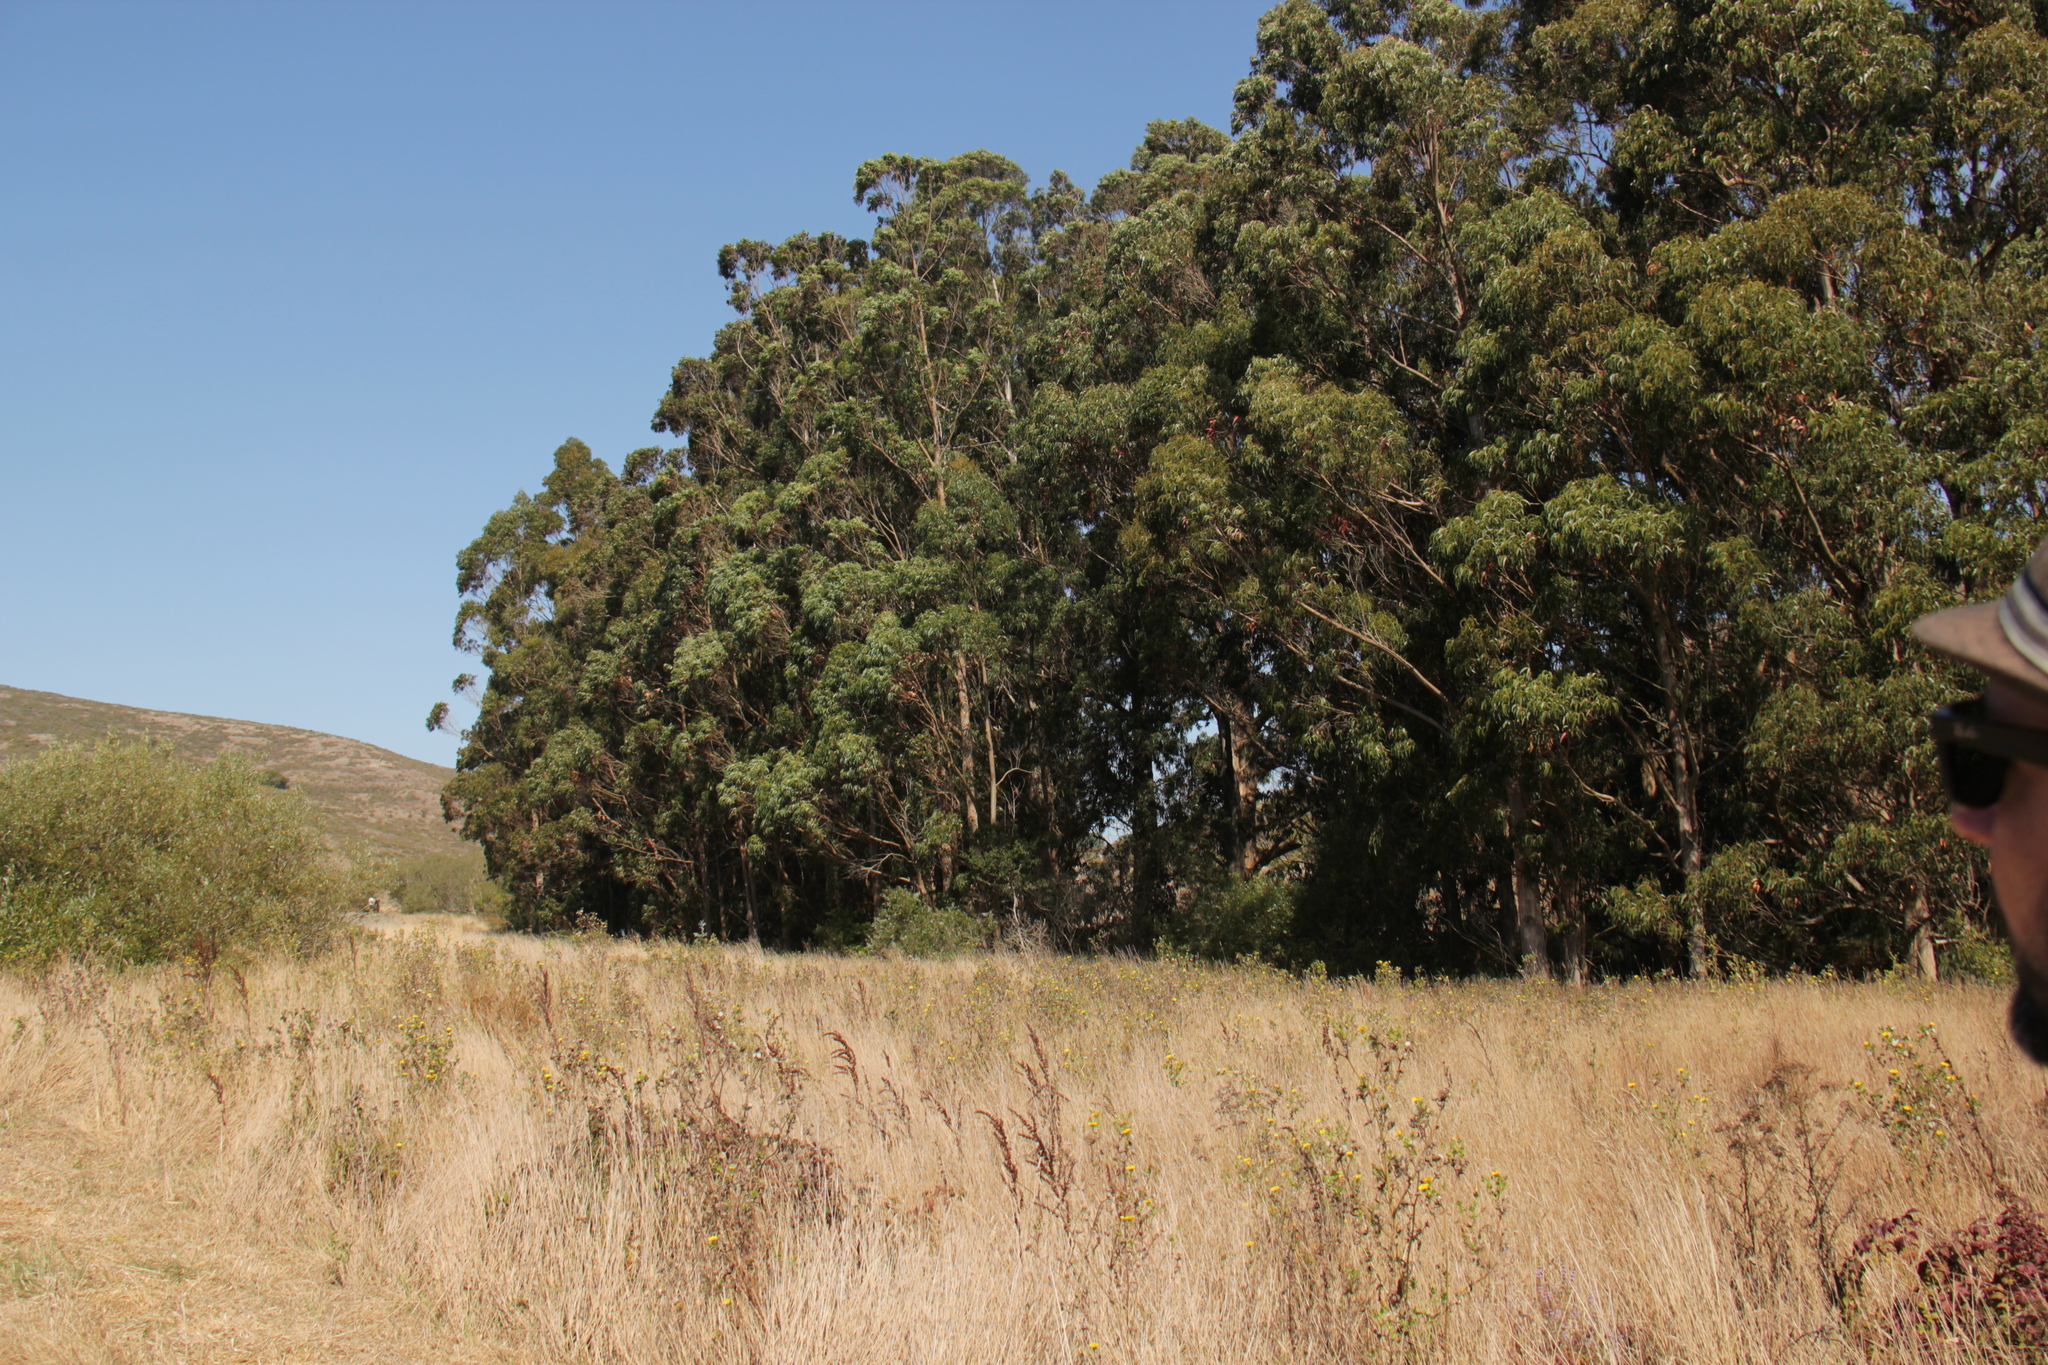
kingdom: Plantae
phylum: Tracheophyta
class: Magnoliopsida
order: Myrtales
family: Myrtaceae
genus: Eucalyptus
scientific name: Eucalyptus globulus
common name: Southern blue-gum
